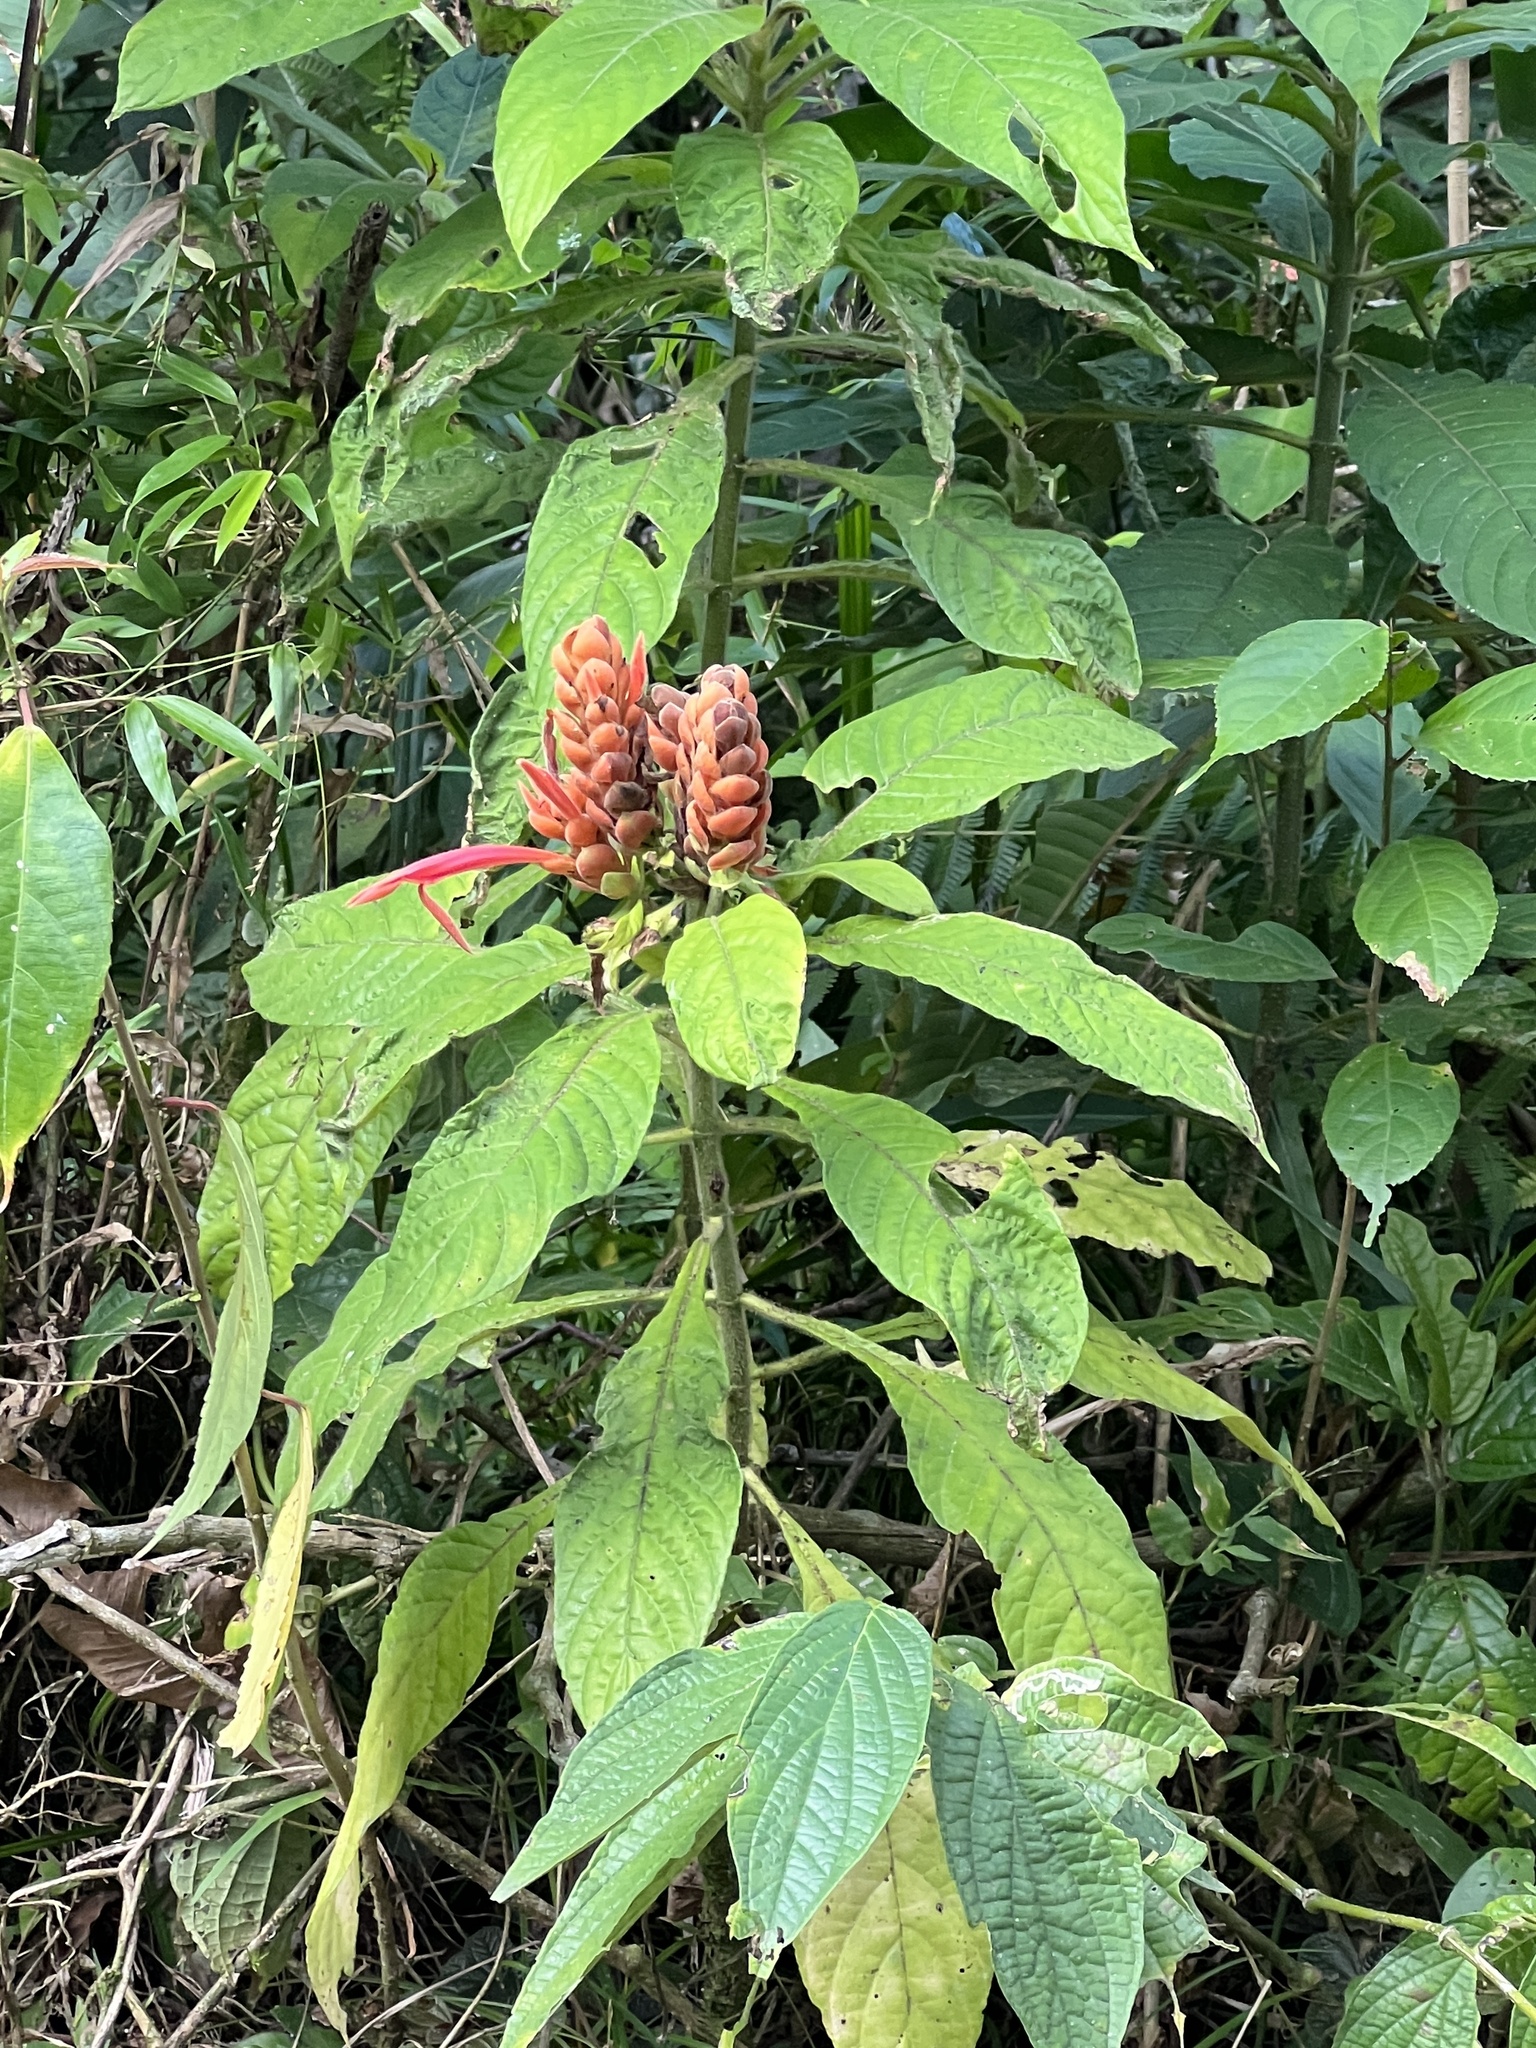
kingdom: Plantae
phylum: Tracheophyta
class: Magnoliopsida
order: Lamiales
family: Acanthaceae
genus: Aphelandra
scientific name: Aphelandra sinclairiana
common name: Coral aphelandra
